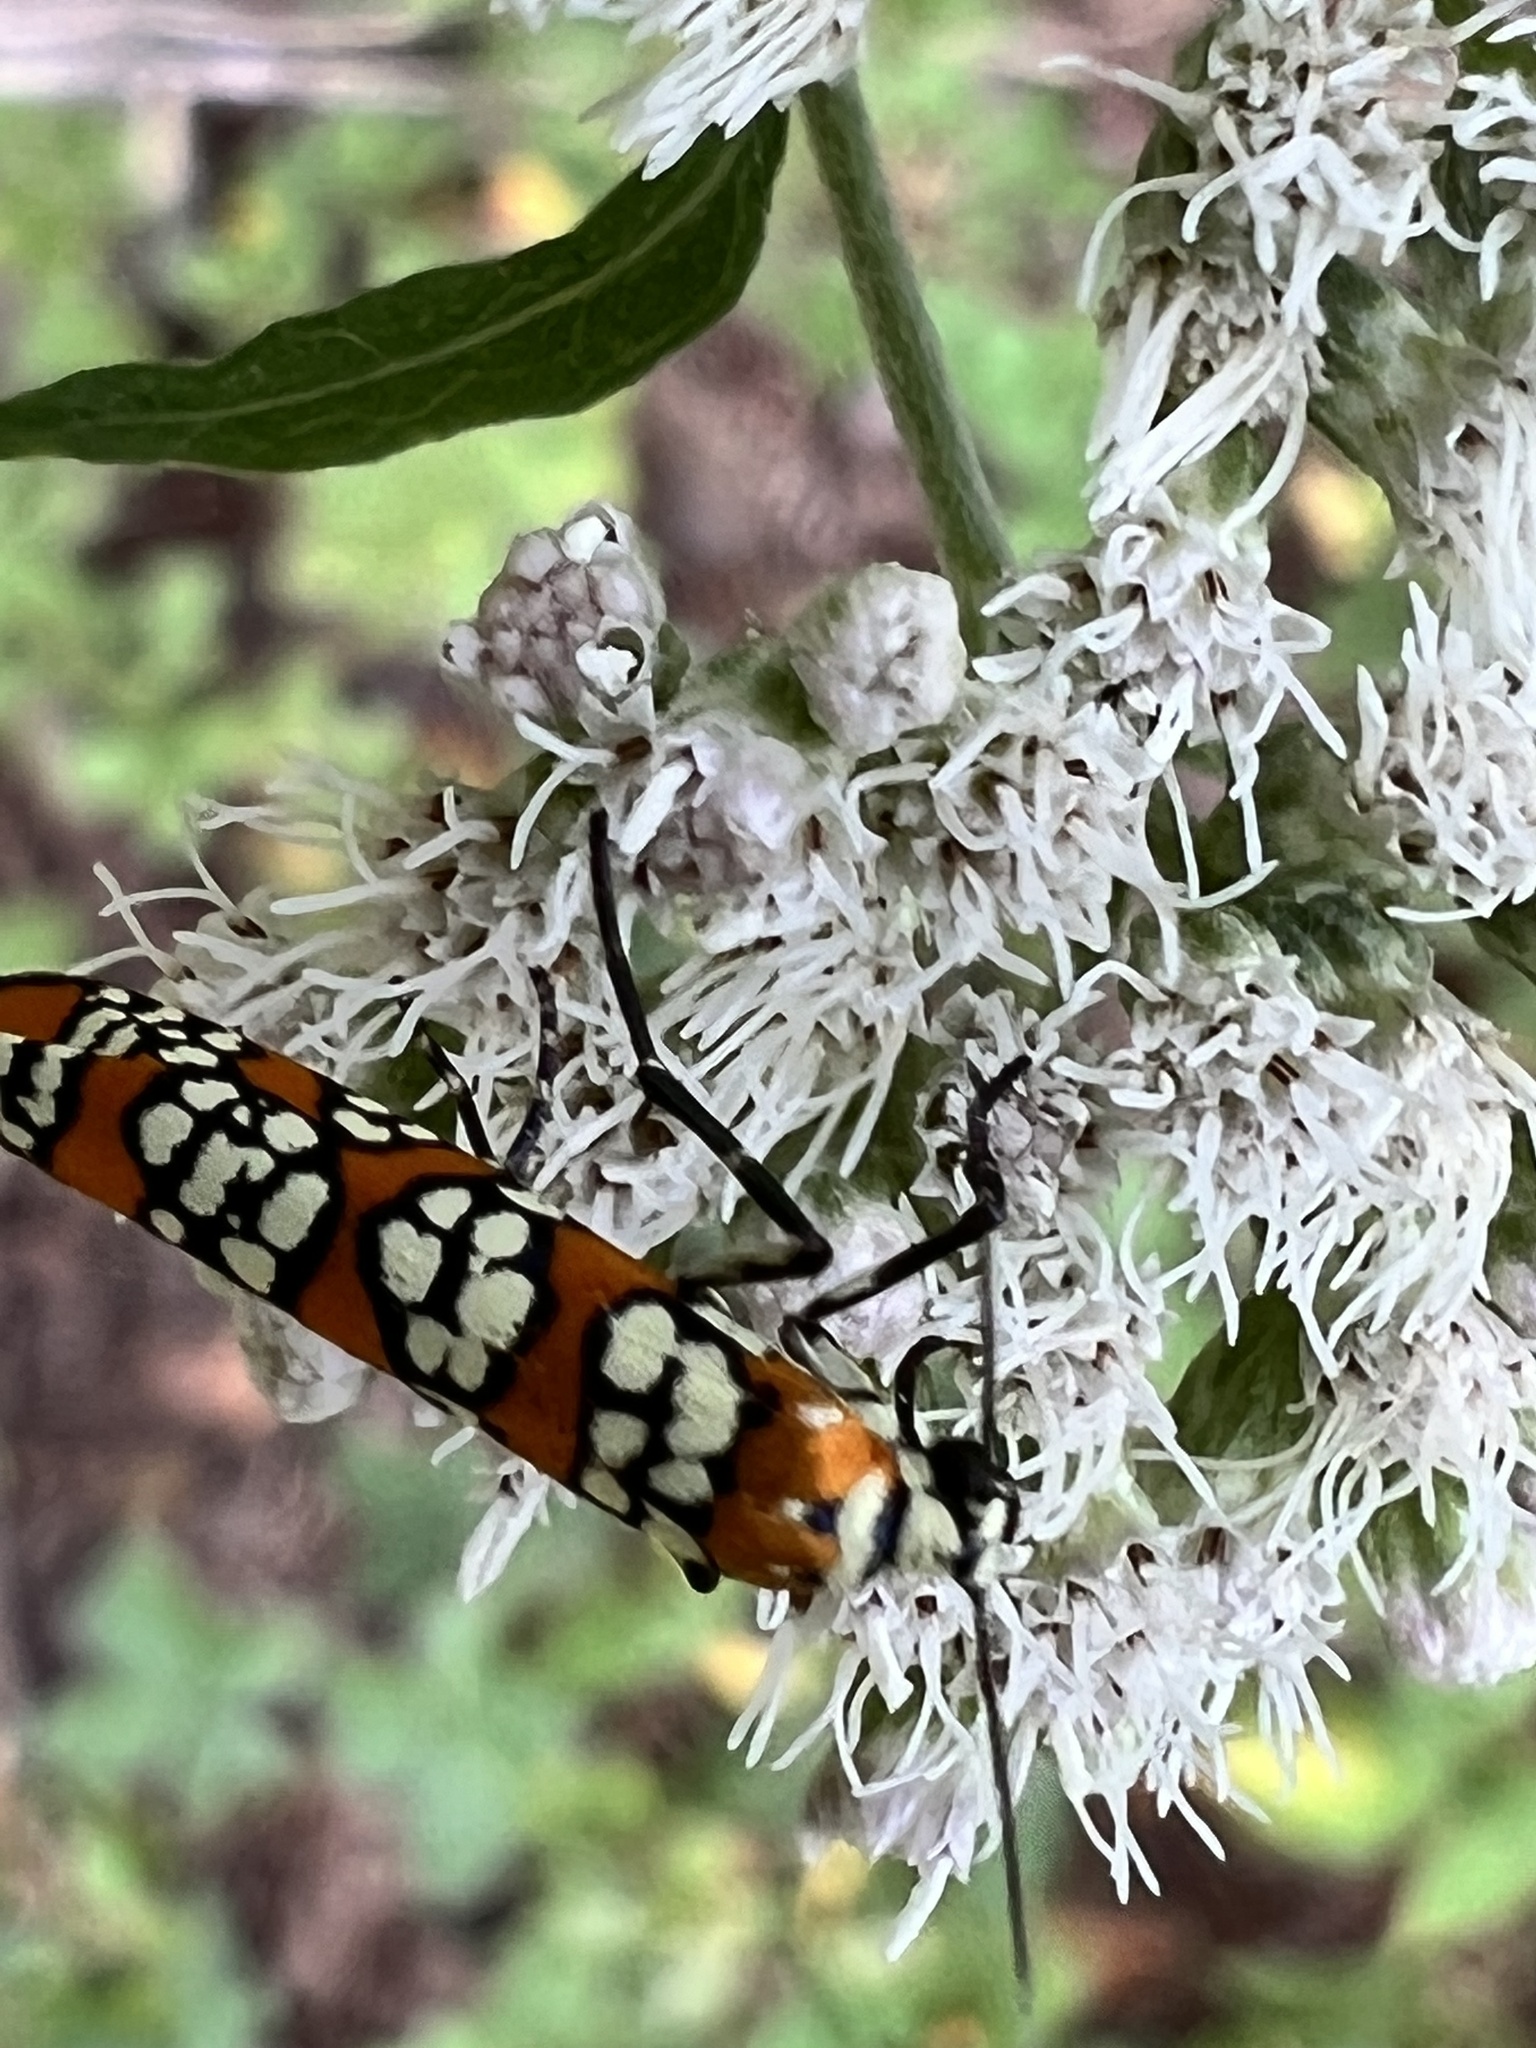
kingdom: Animalia
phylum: Arthropoda
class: Insecta
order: Lepidoptera
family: Attevidae
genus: Atteva
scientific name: Atteva punctella
